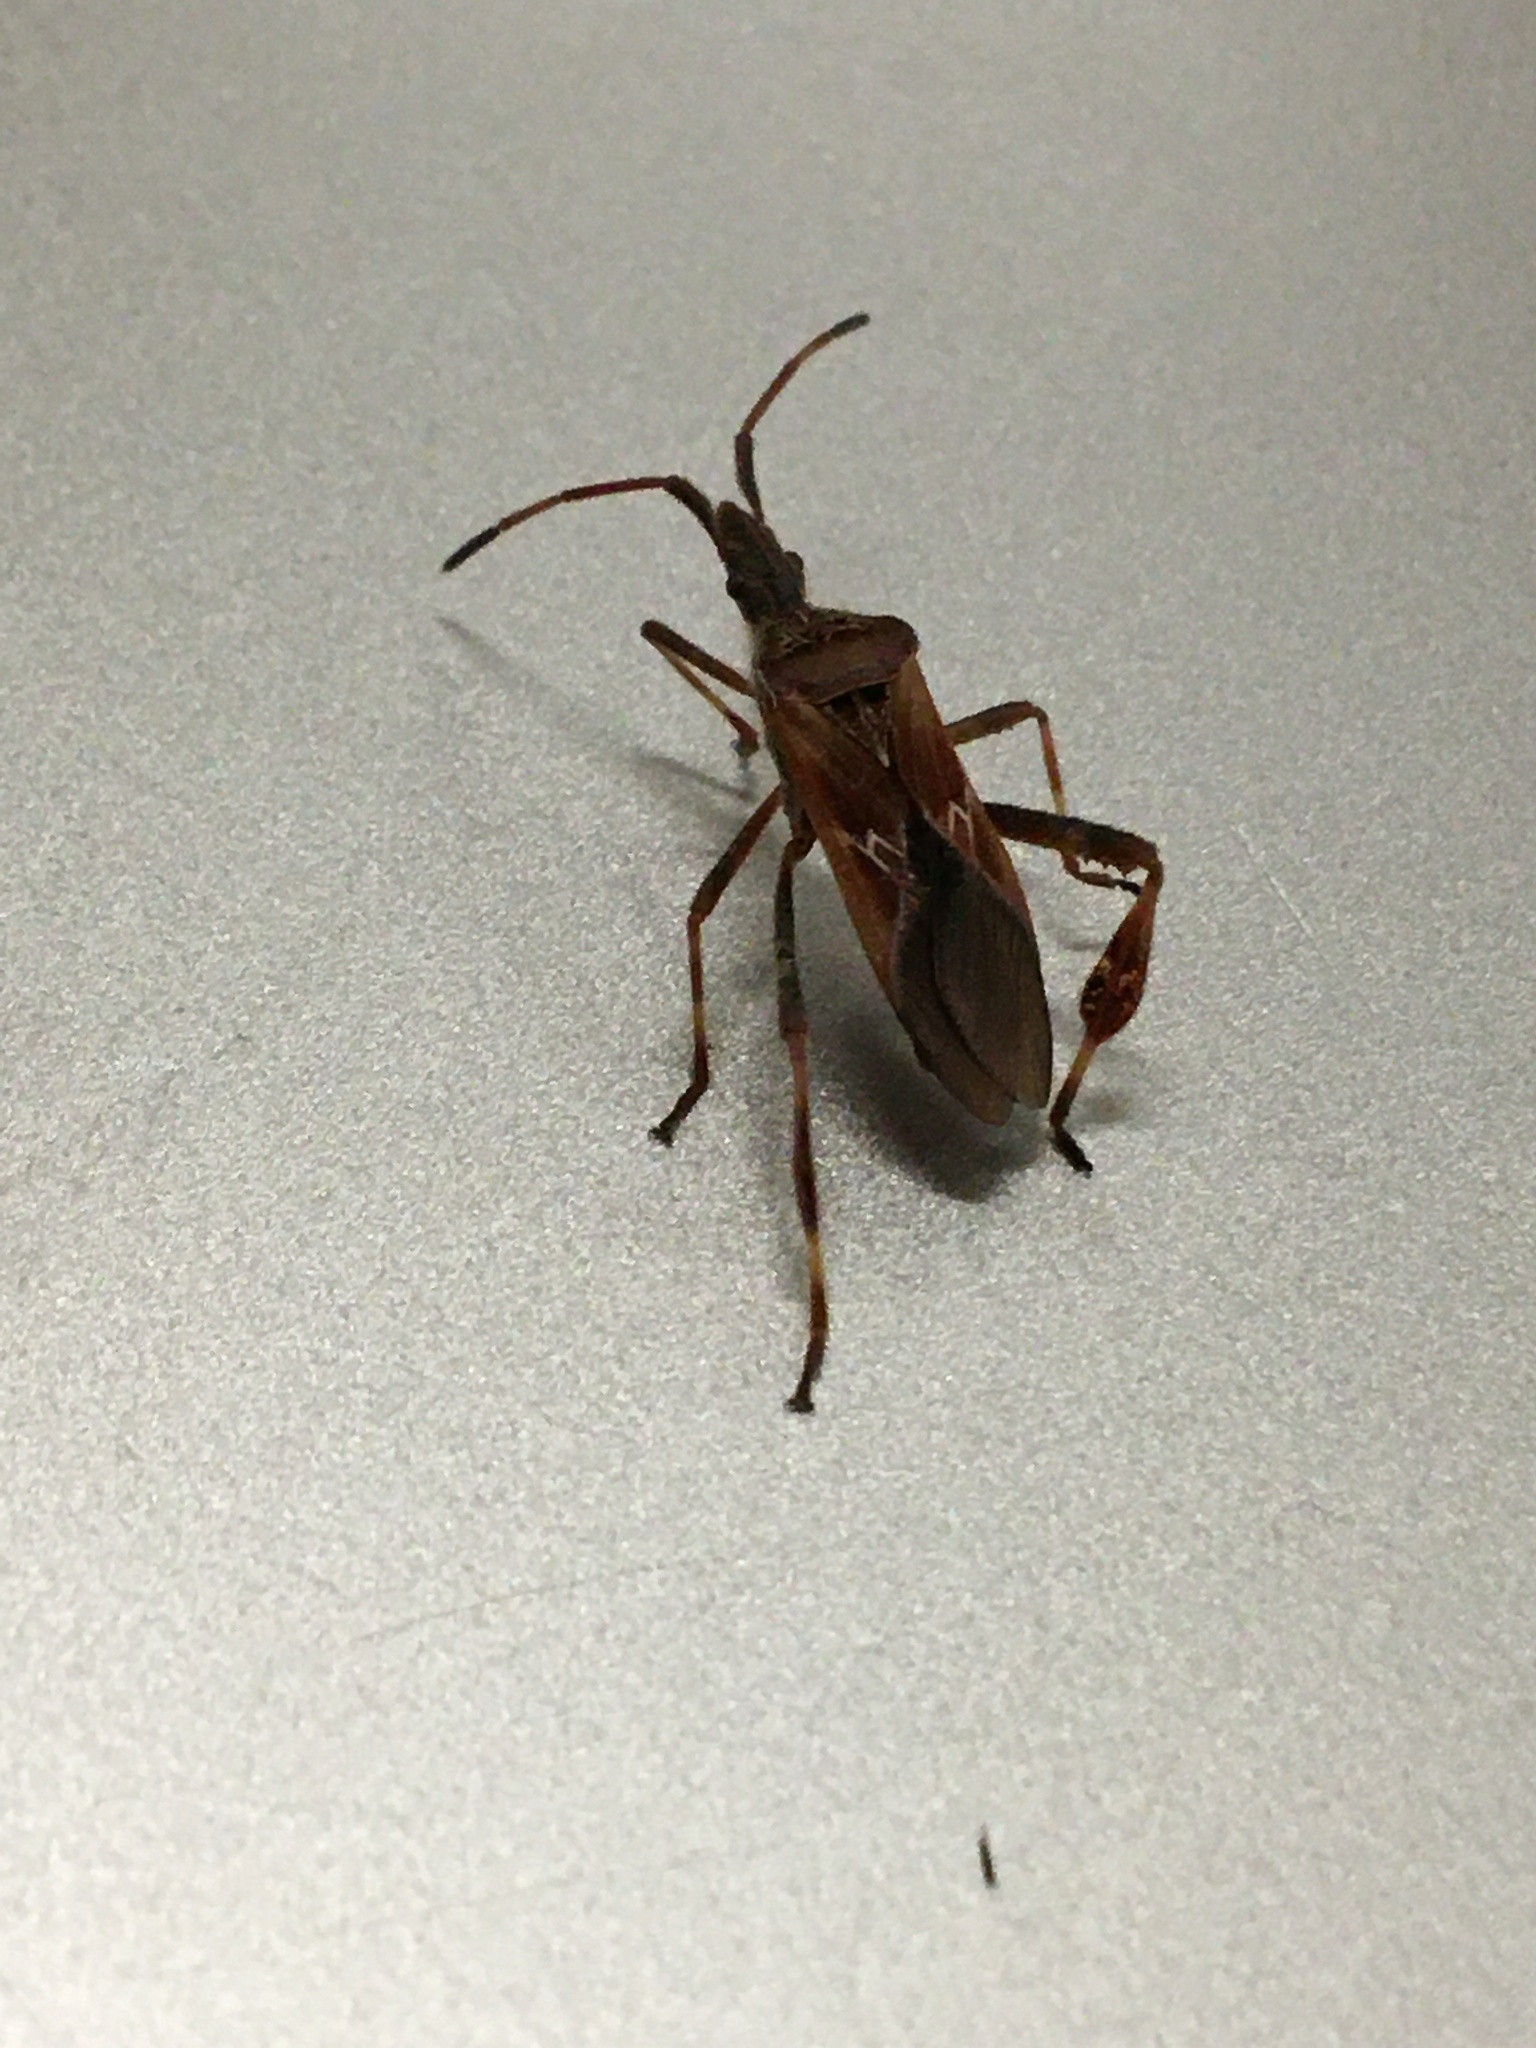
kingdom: Animalia
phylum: Arthropoda
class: Insecta
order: Hemiptera
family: Coreidae
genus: Leptoglossus
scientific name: Leptoglossus occidentalis
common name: Western conifer-seed bug
